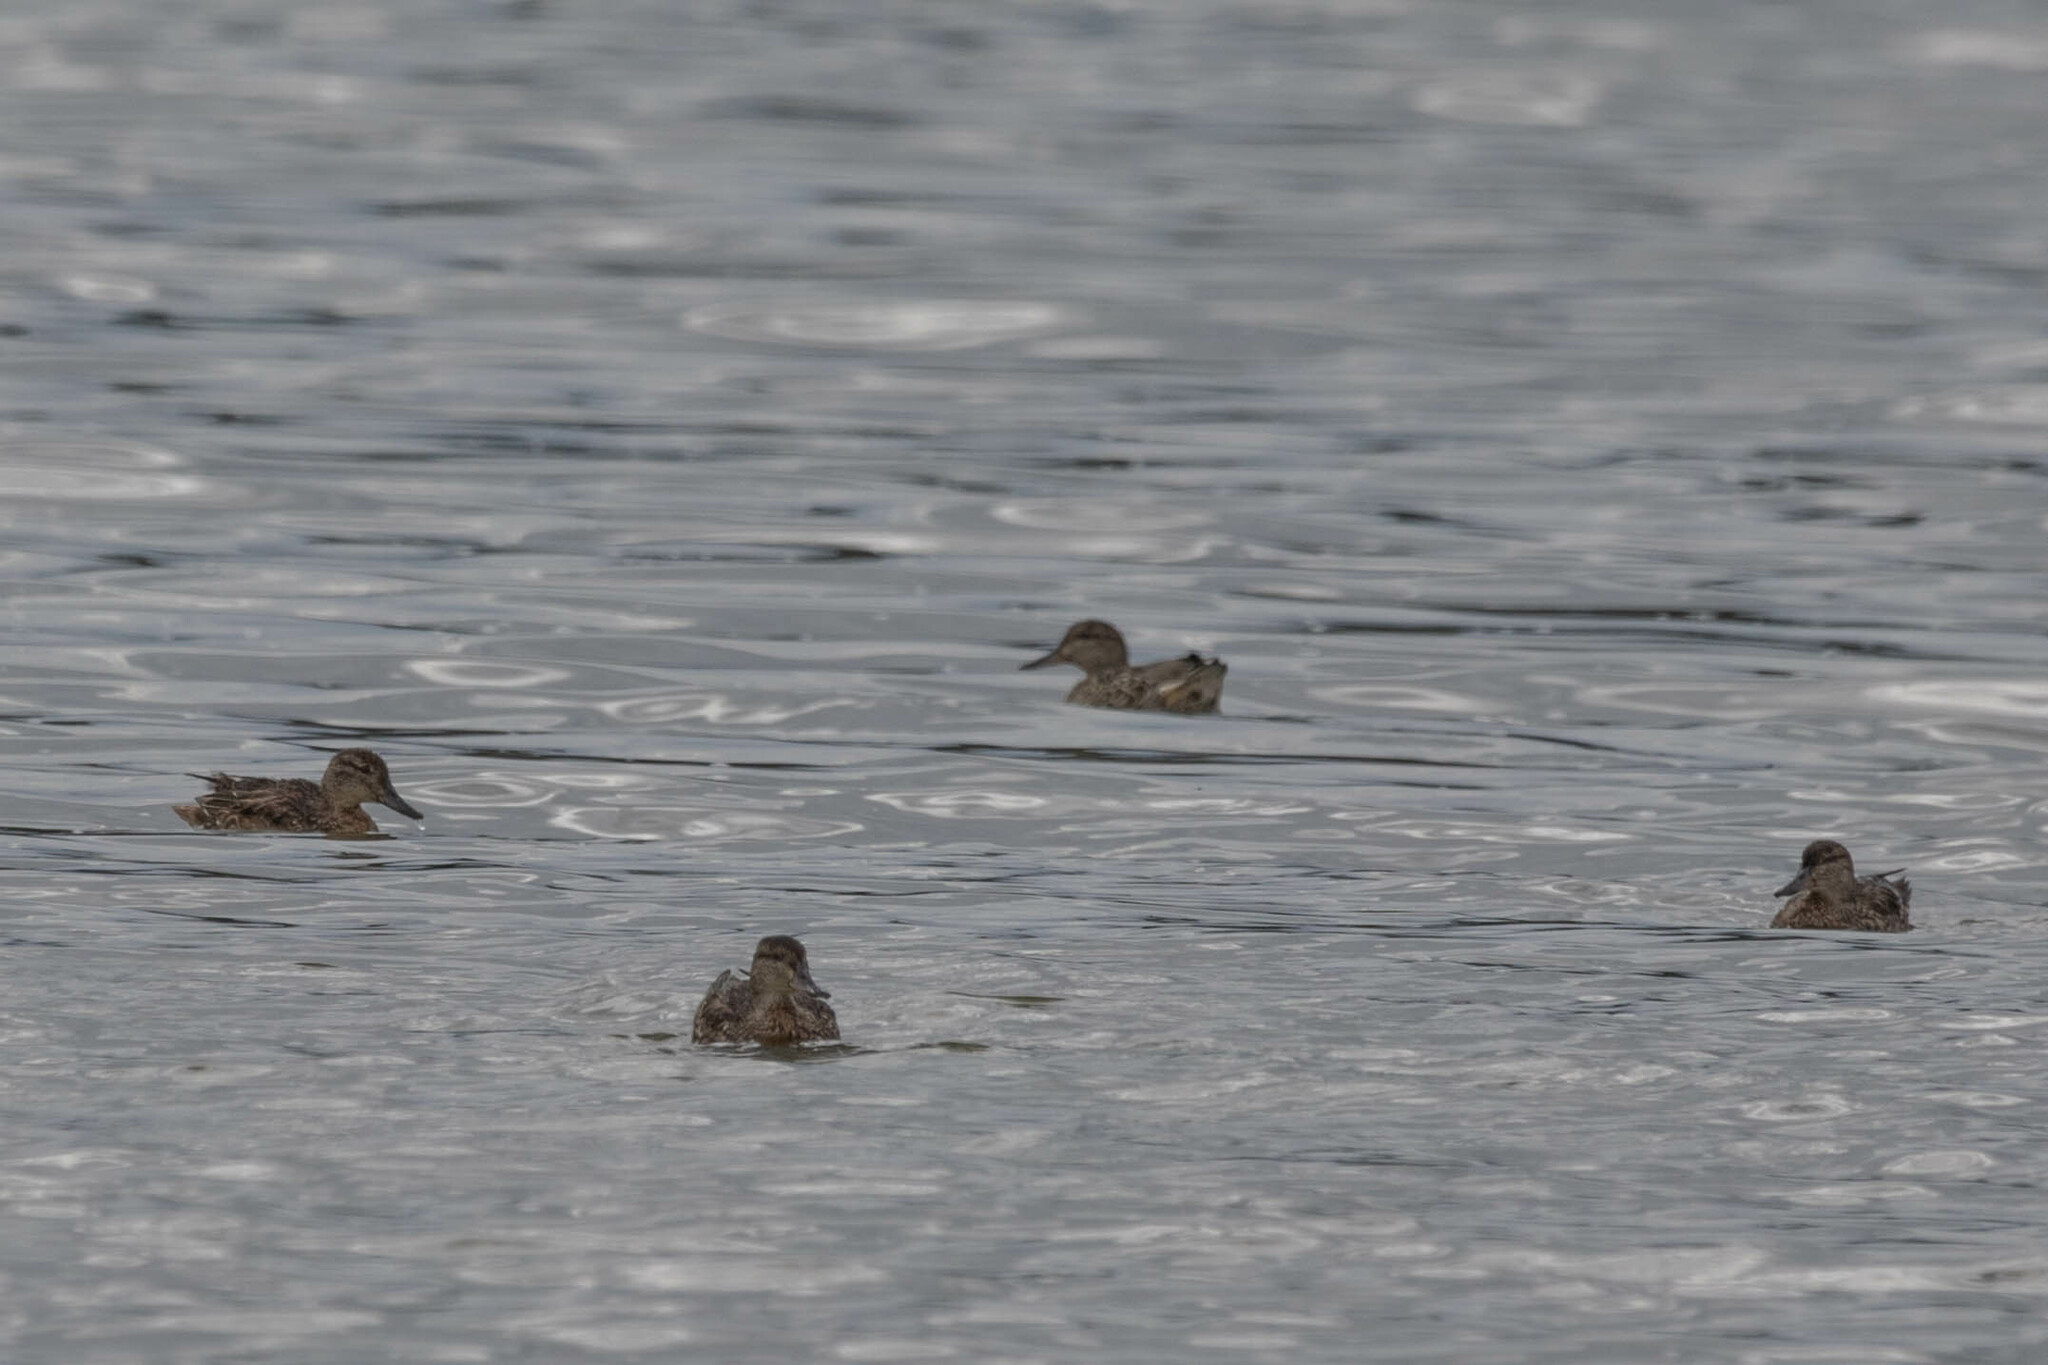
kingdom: Animalia
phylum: Chordata
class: Aves
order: Anseriformes
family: Anatidae
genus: Anas
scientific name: Anas crecca
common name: Eurasian teal
